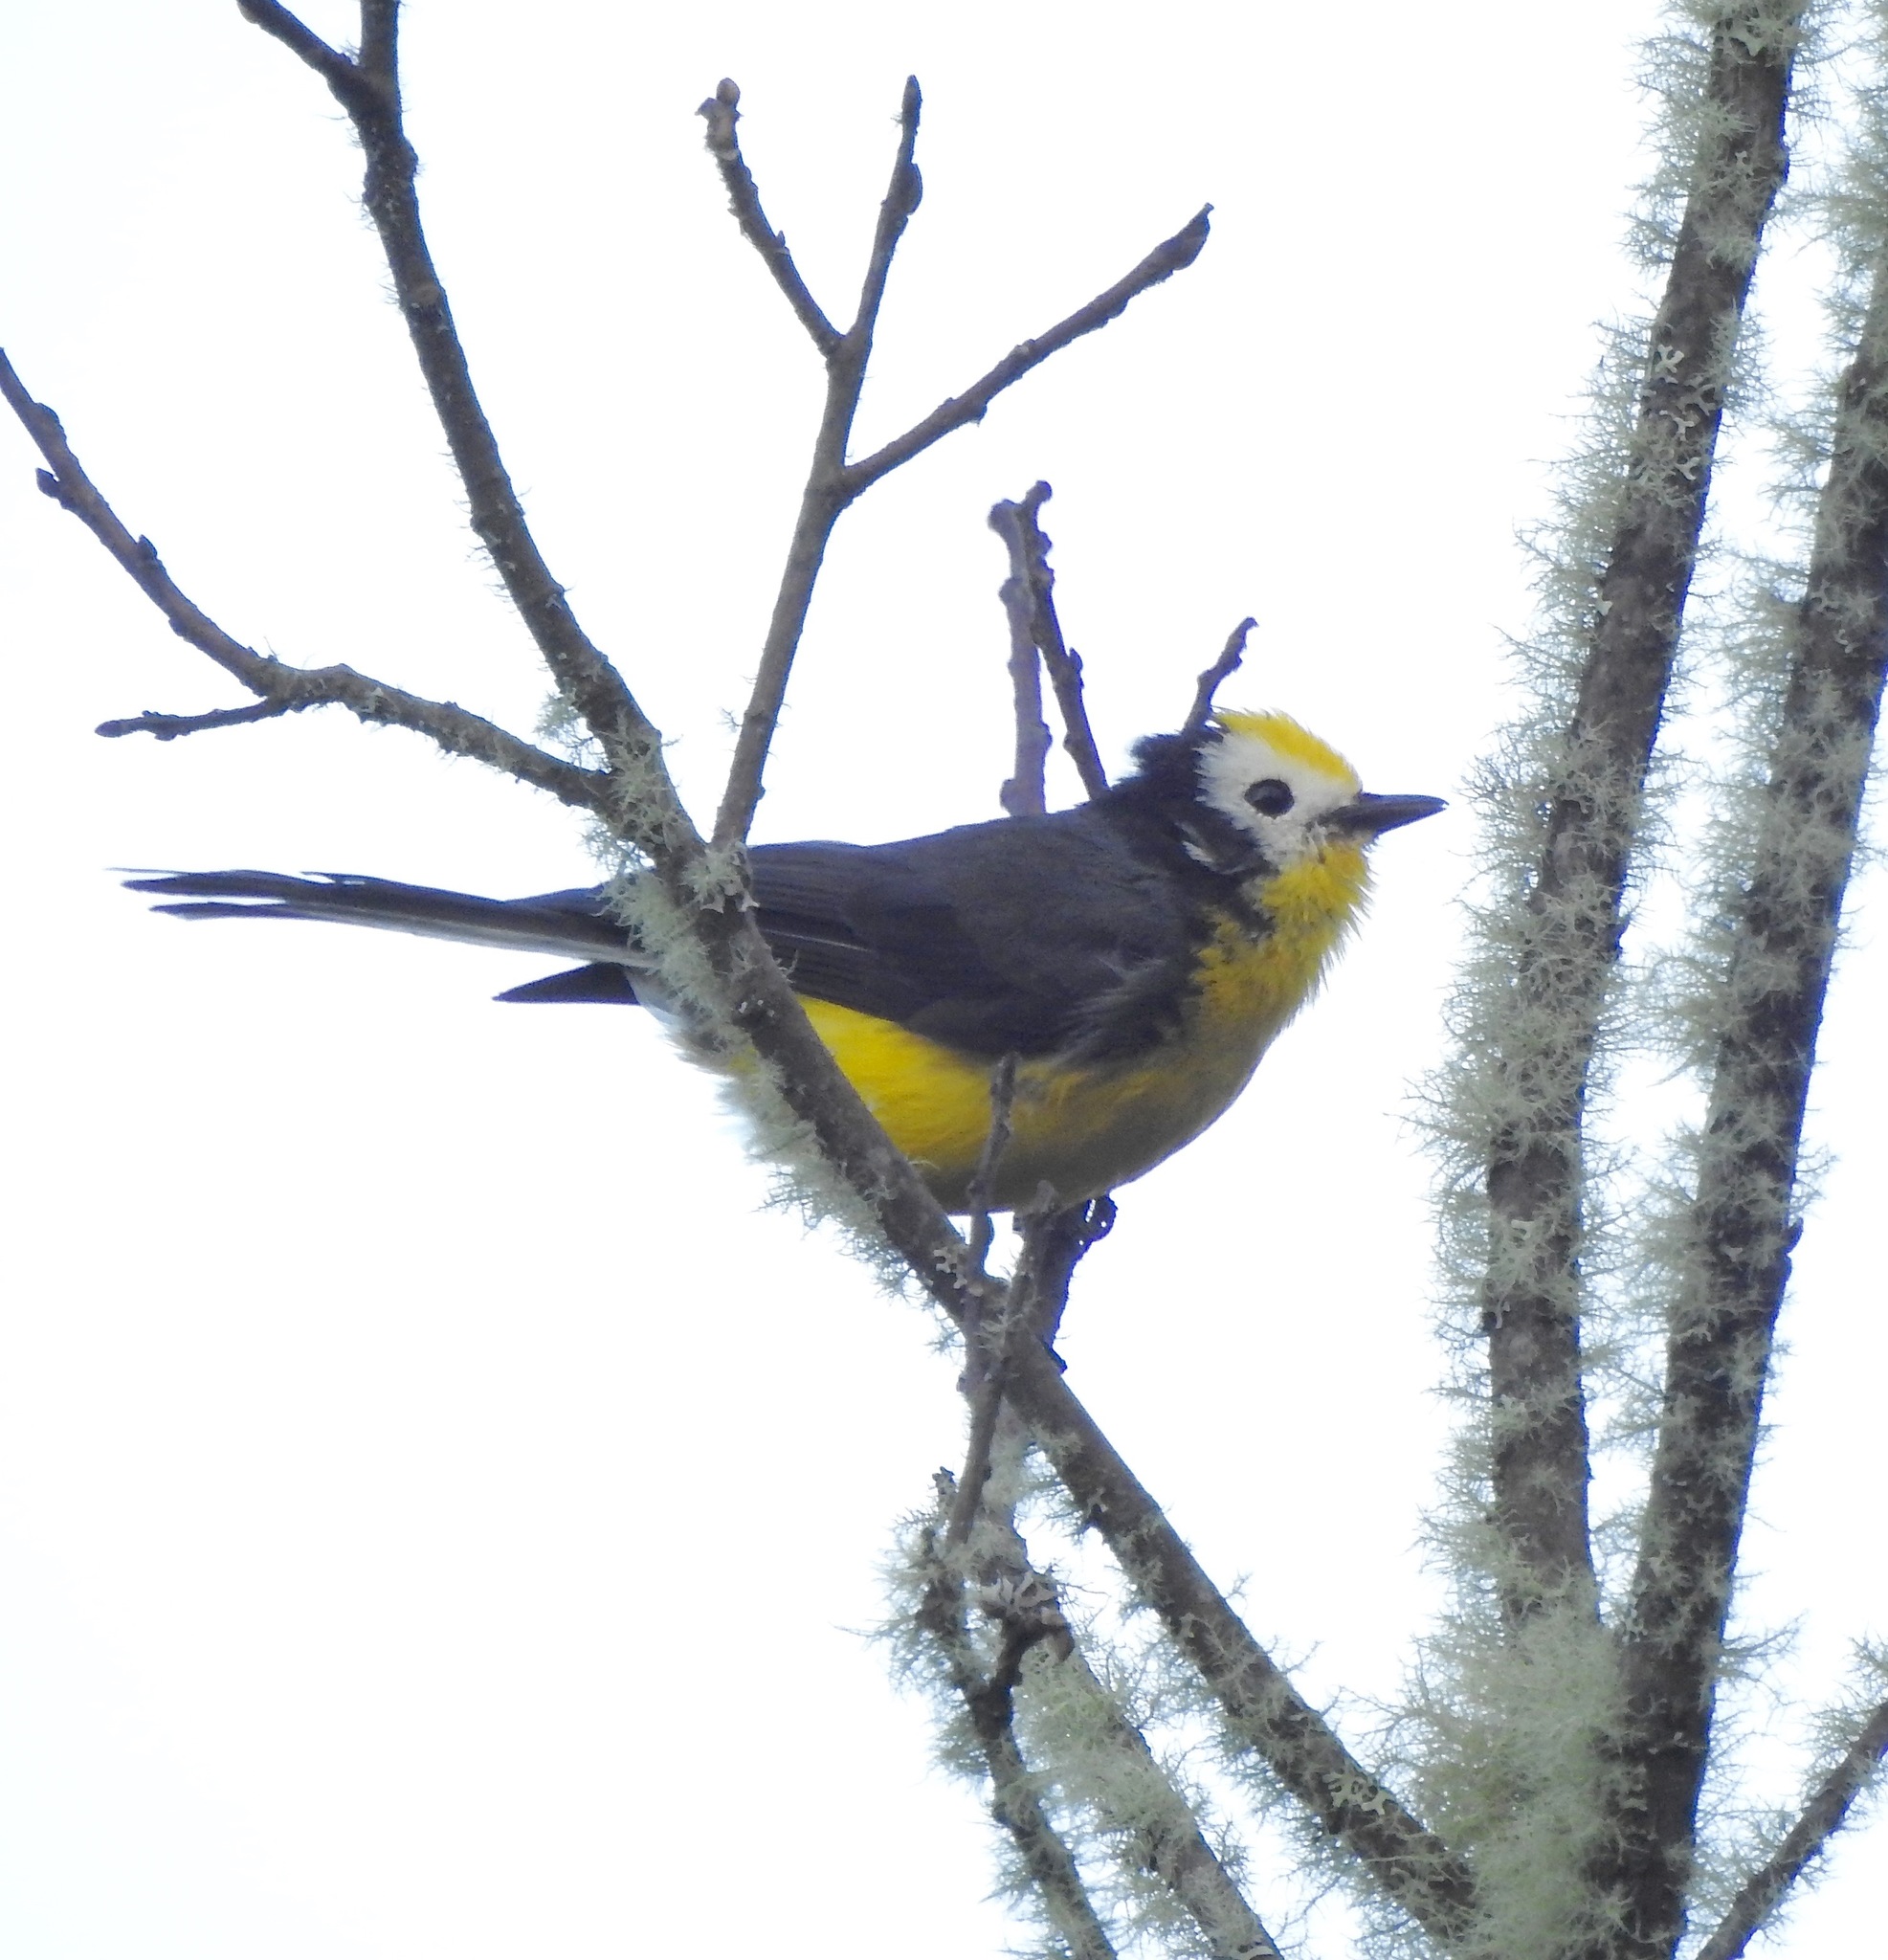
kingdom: Animalia
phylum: Chordata
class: Aves
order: Passeriformes
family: Parulidae
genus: Myioborus
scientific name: Myioborus ornatus
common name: Golden-fronted whitestart
